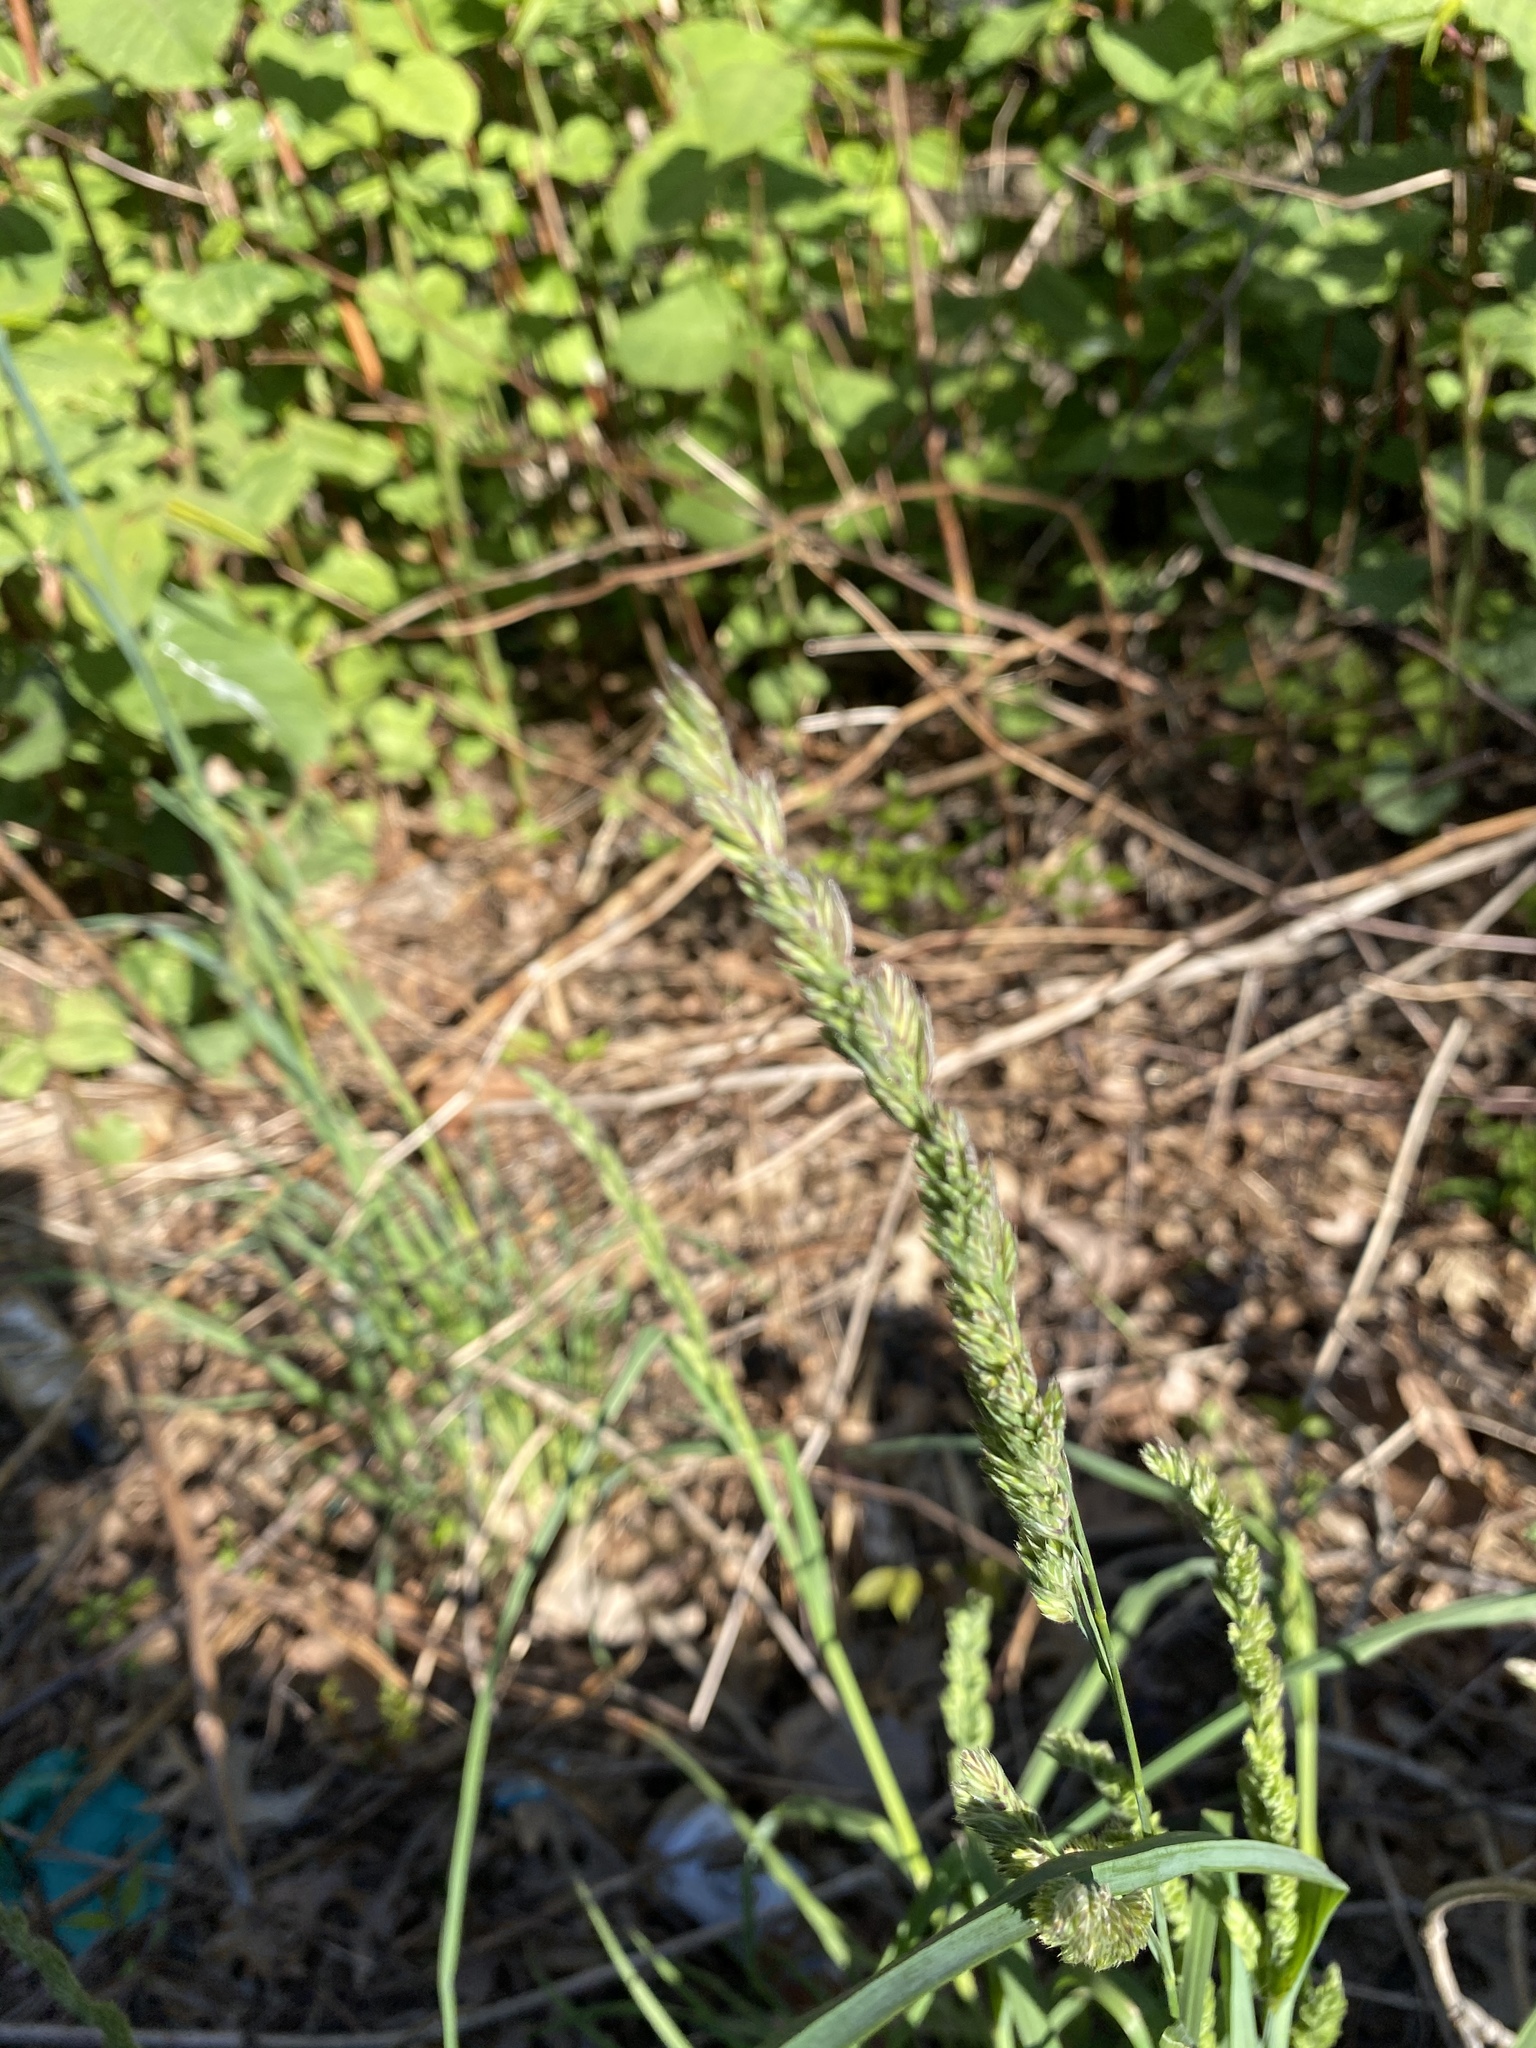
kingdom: Plantae
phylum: Tracheophyta
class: Liliopsida
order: Poales
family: Poaceae
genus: Dactylis
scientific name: Dactylis glomerata
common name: Orchardgrass
